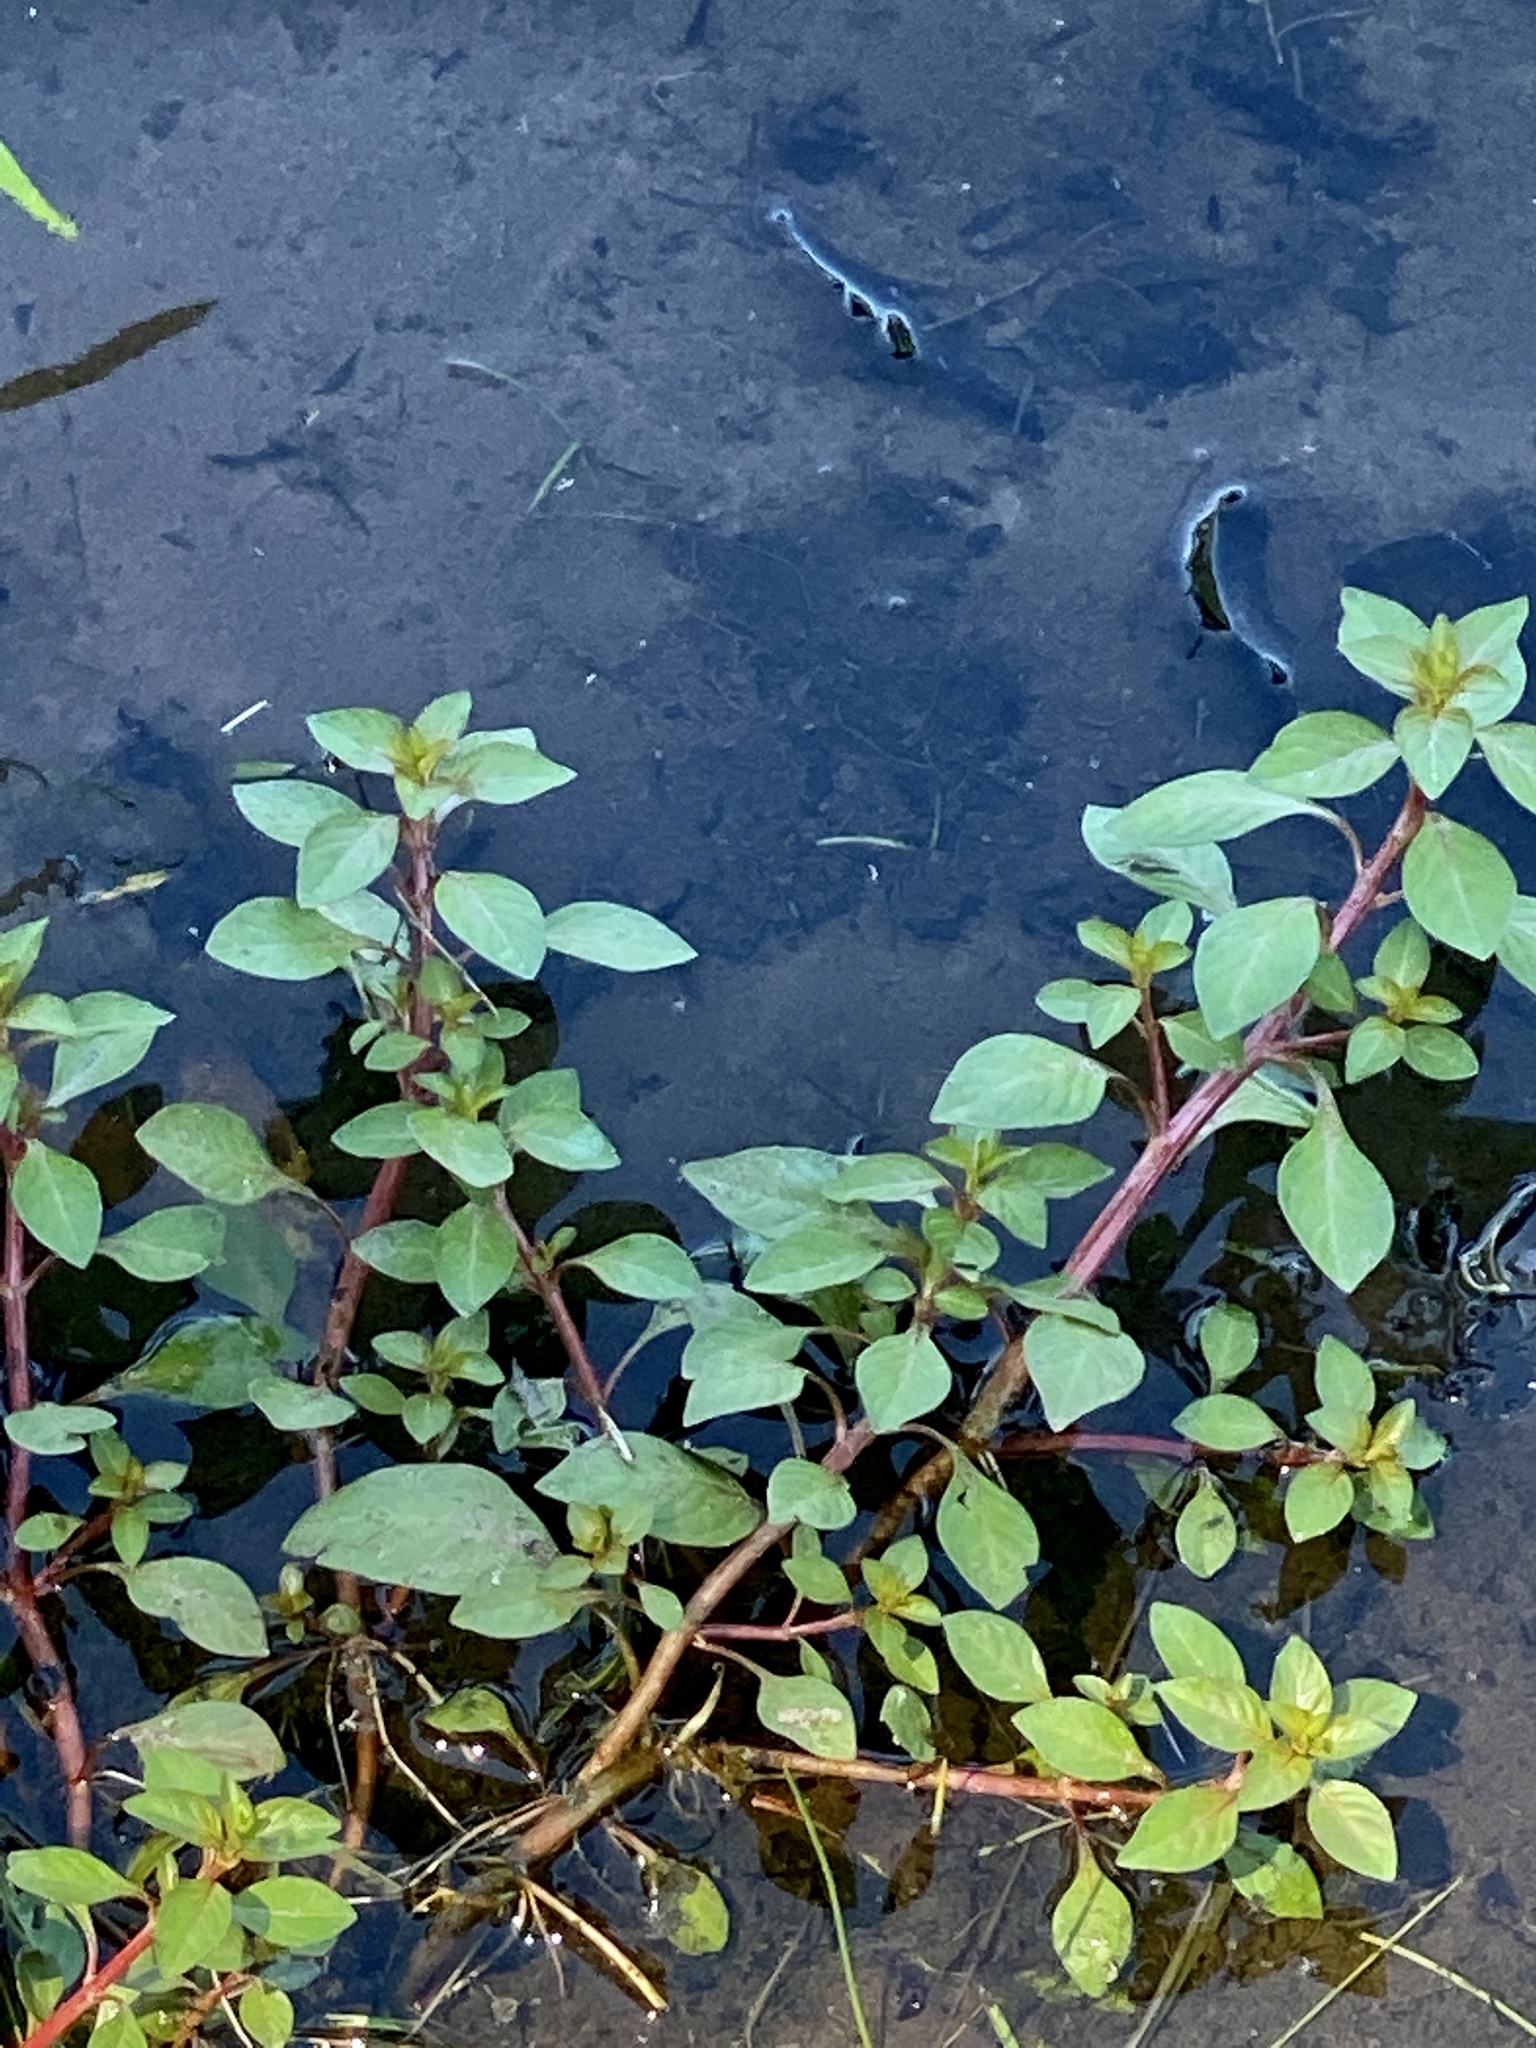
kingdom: Plantae
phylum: Tracheophyta
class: Magnoliopsida
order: Myrtales
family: Onagraceae
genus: Ludwigia
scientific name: Ludwigia palustris
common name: Hampshire-purslane
